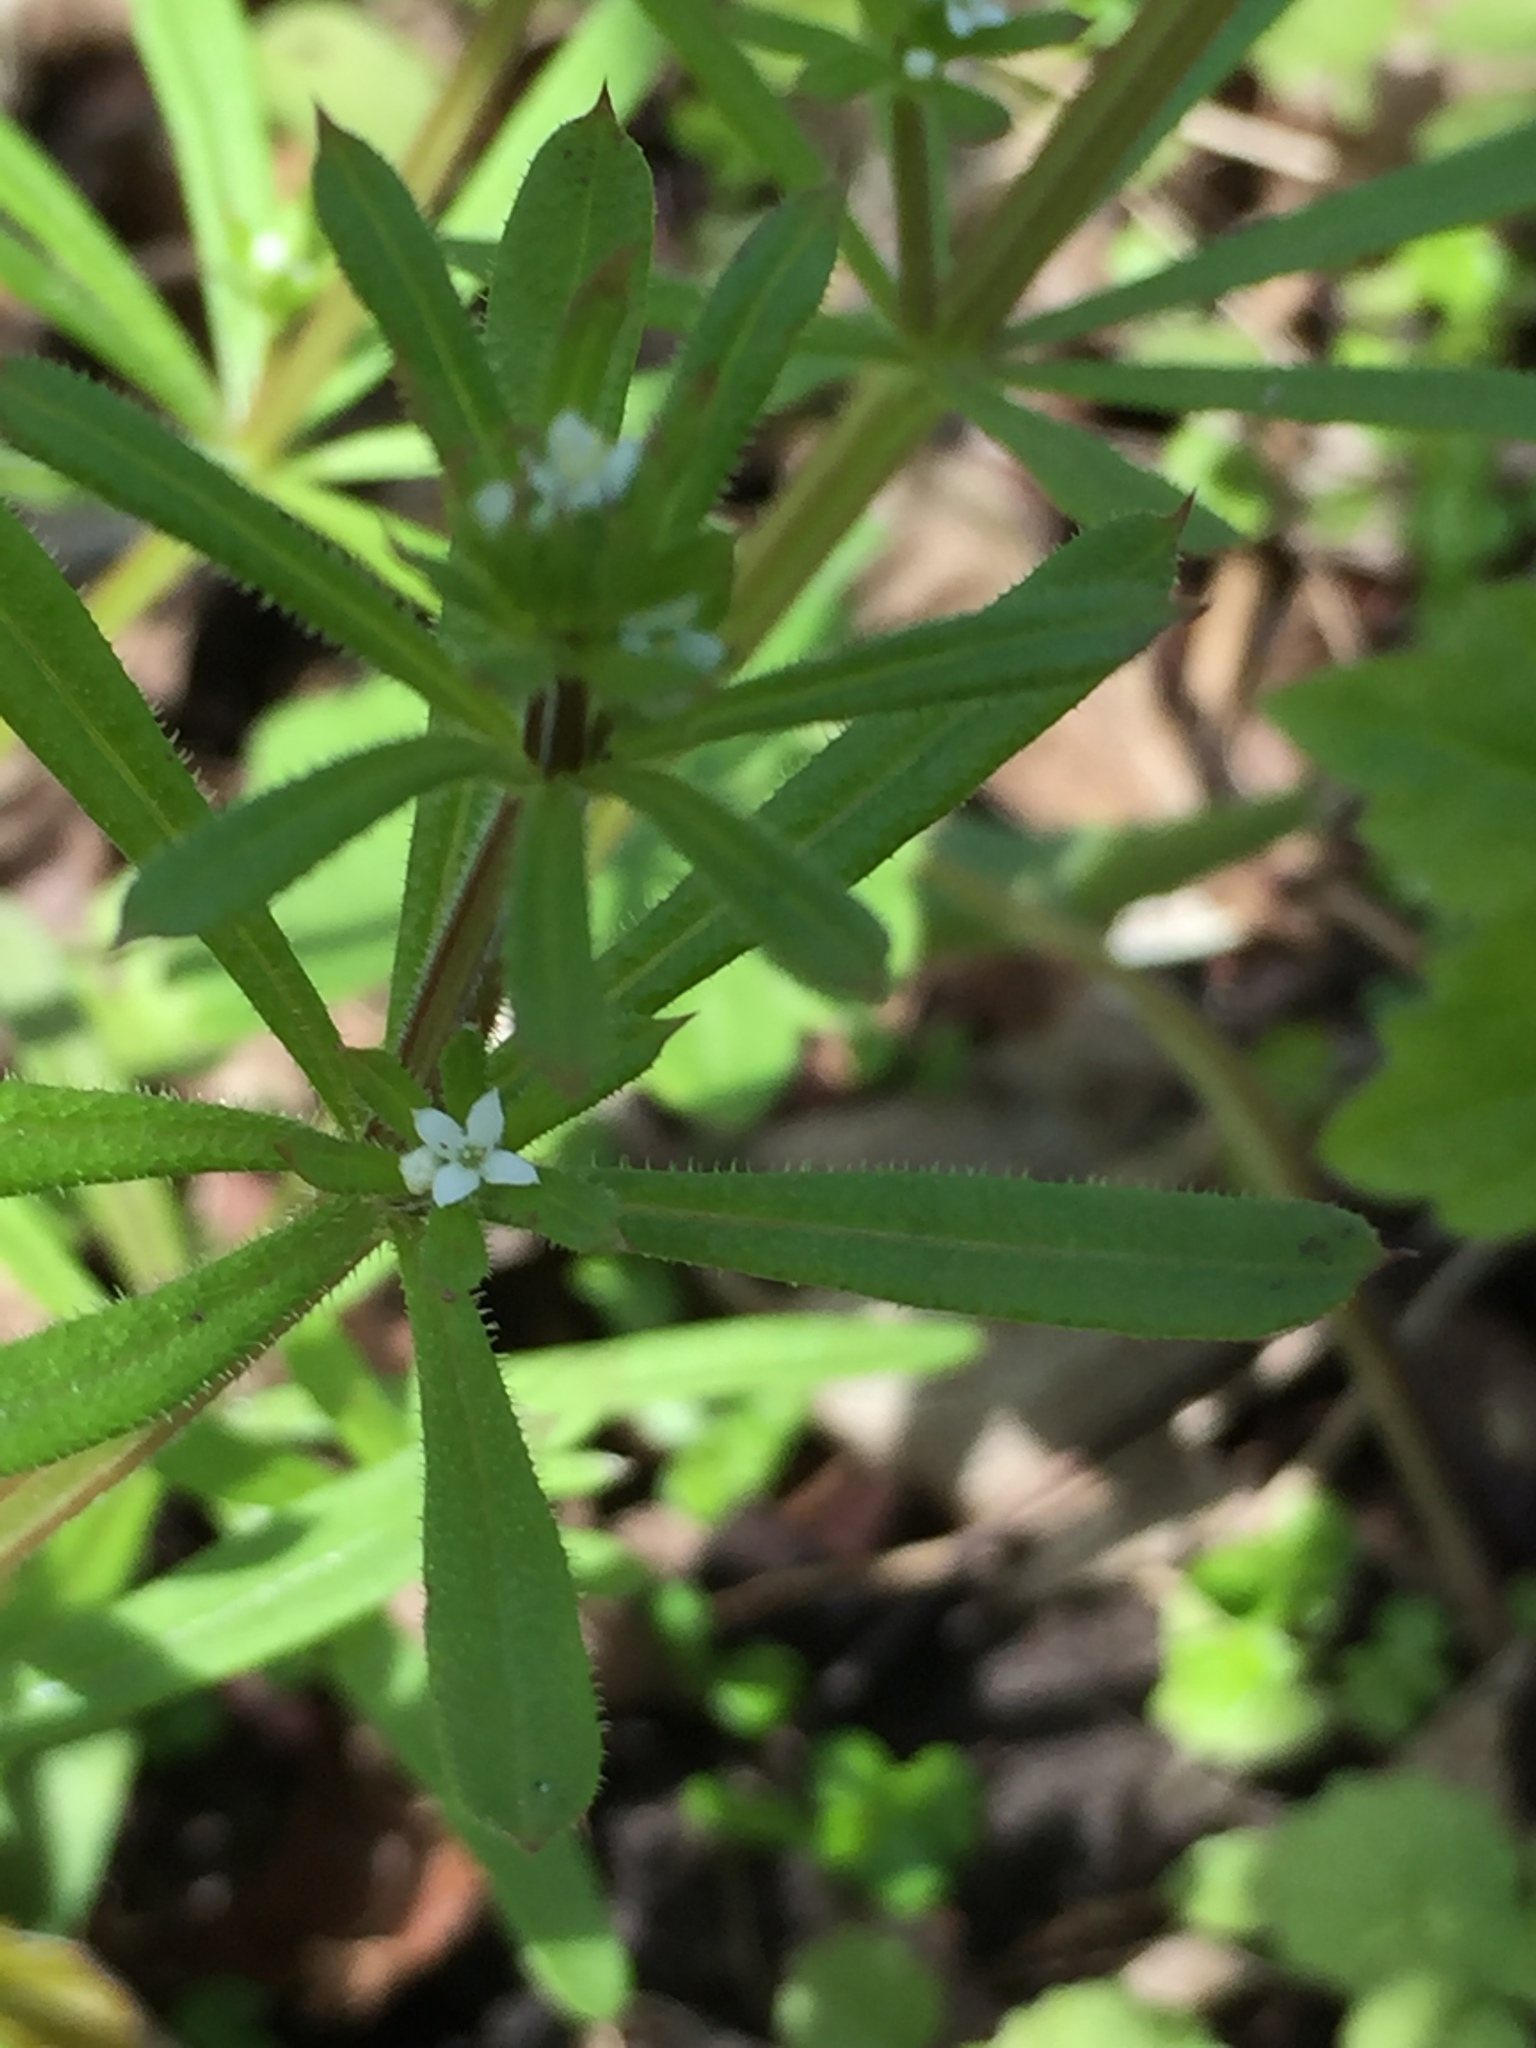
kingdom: Plantae
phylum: Tracheophyta
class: Magnoliopsida
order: Gentianales
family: Rubiaceae
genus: Galium
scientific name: Galium aparine
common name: Cleavers
